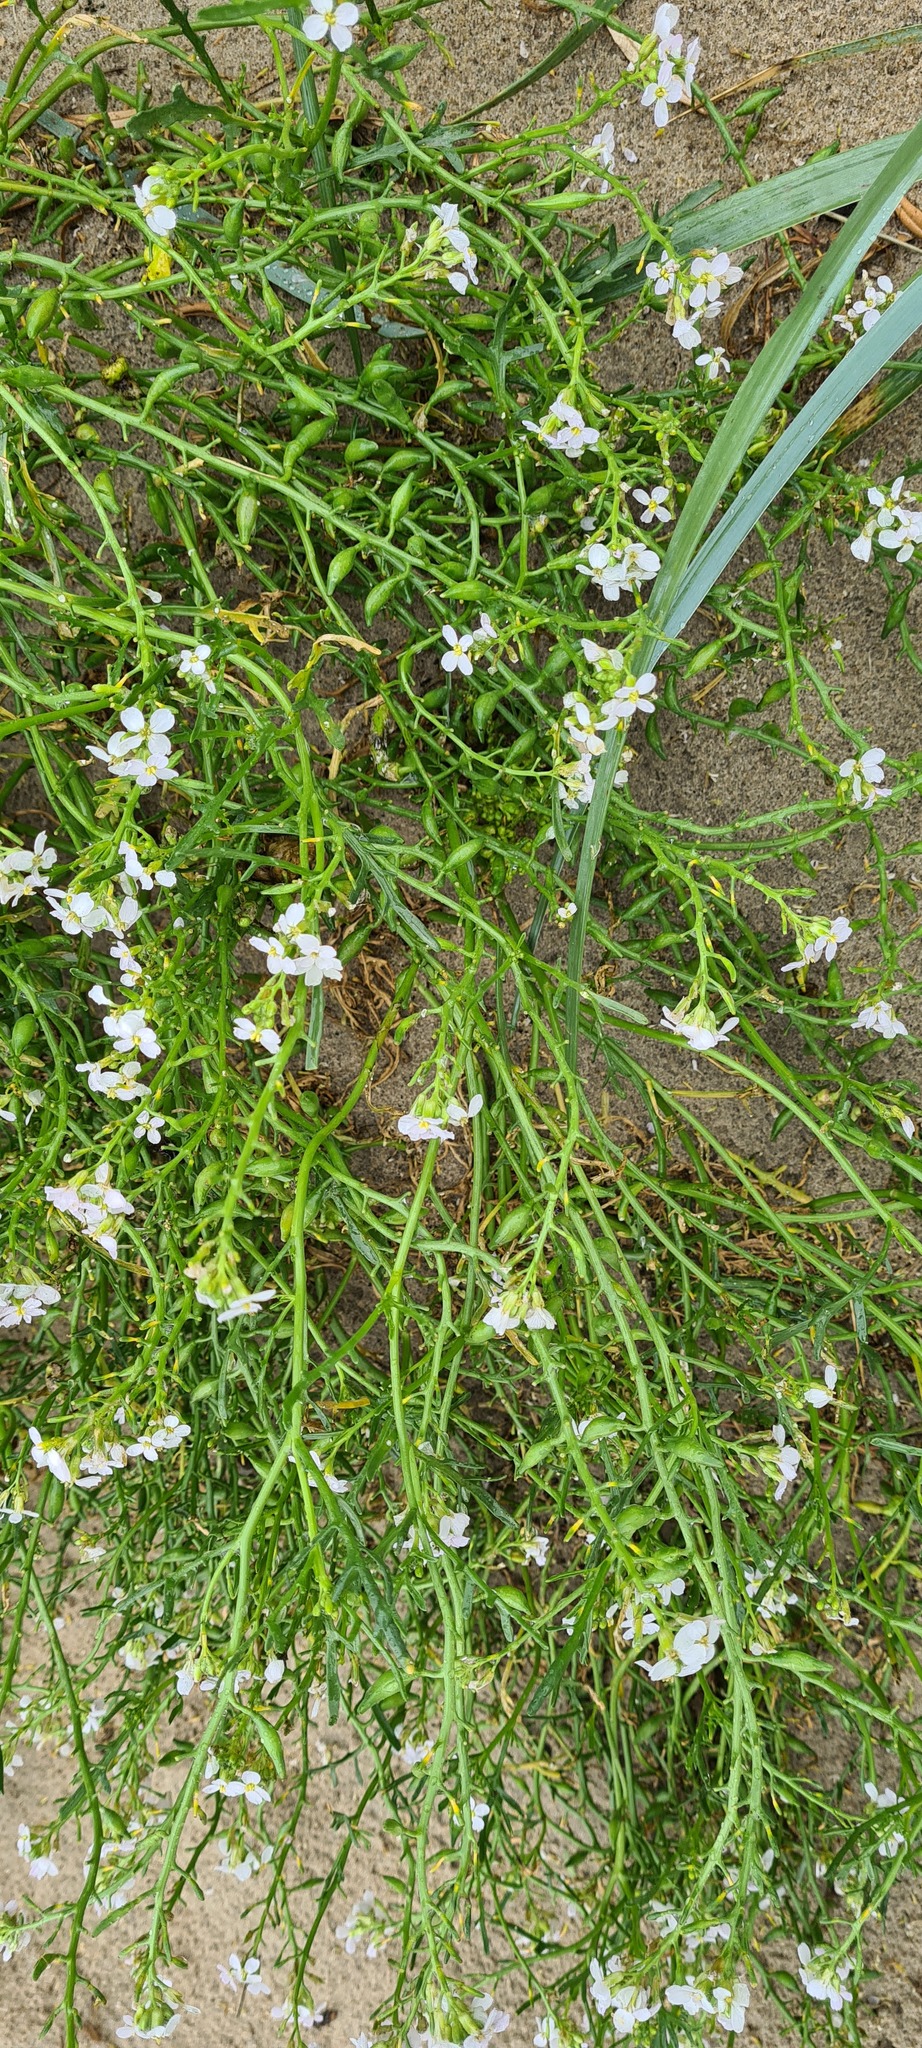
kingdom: Plantae
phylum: Tracheophyta
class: Magnoliopsida
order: Brassicales
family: Brassicaceae
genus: Cakile
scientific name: Cakile maritima
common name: Sea rocket
